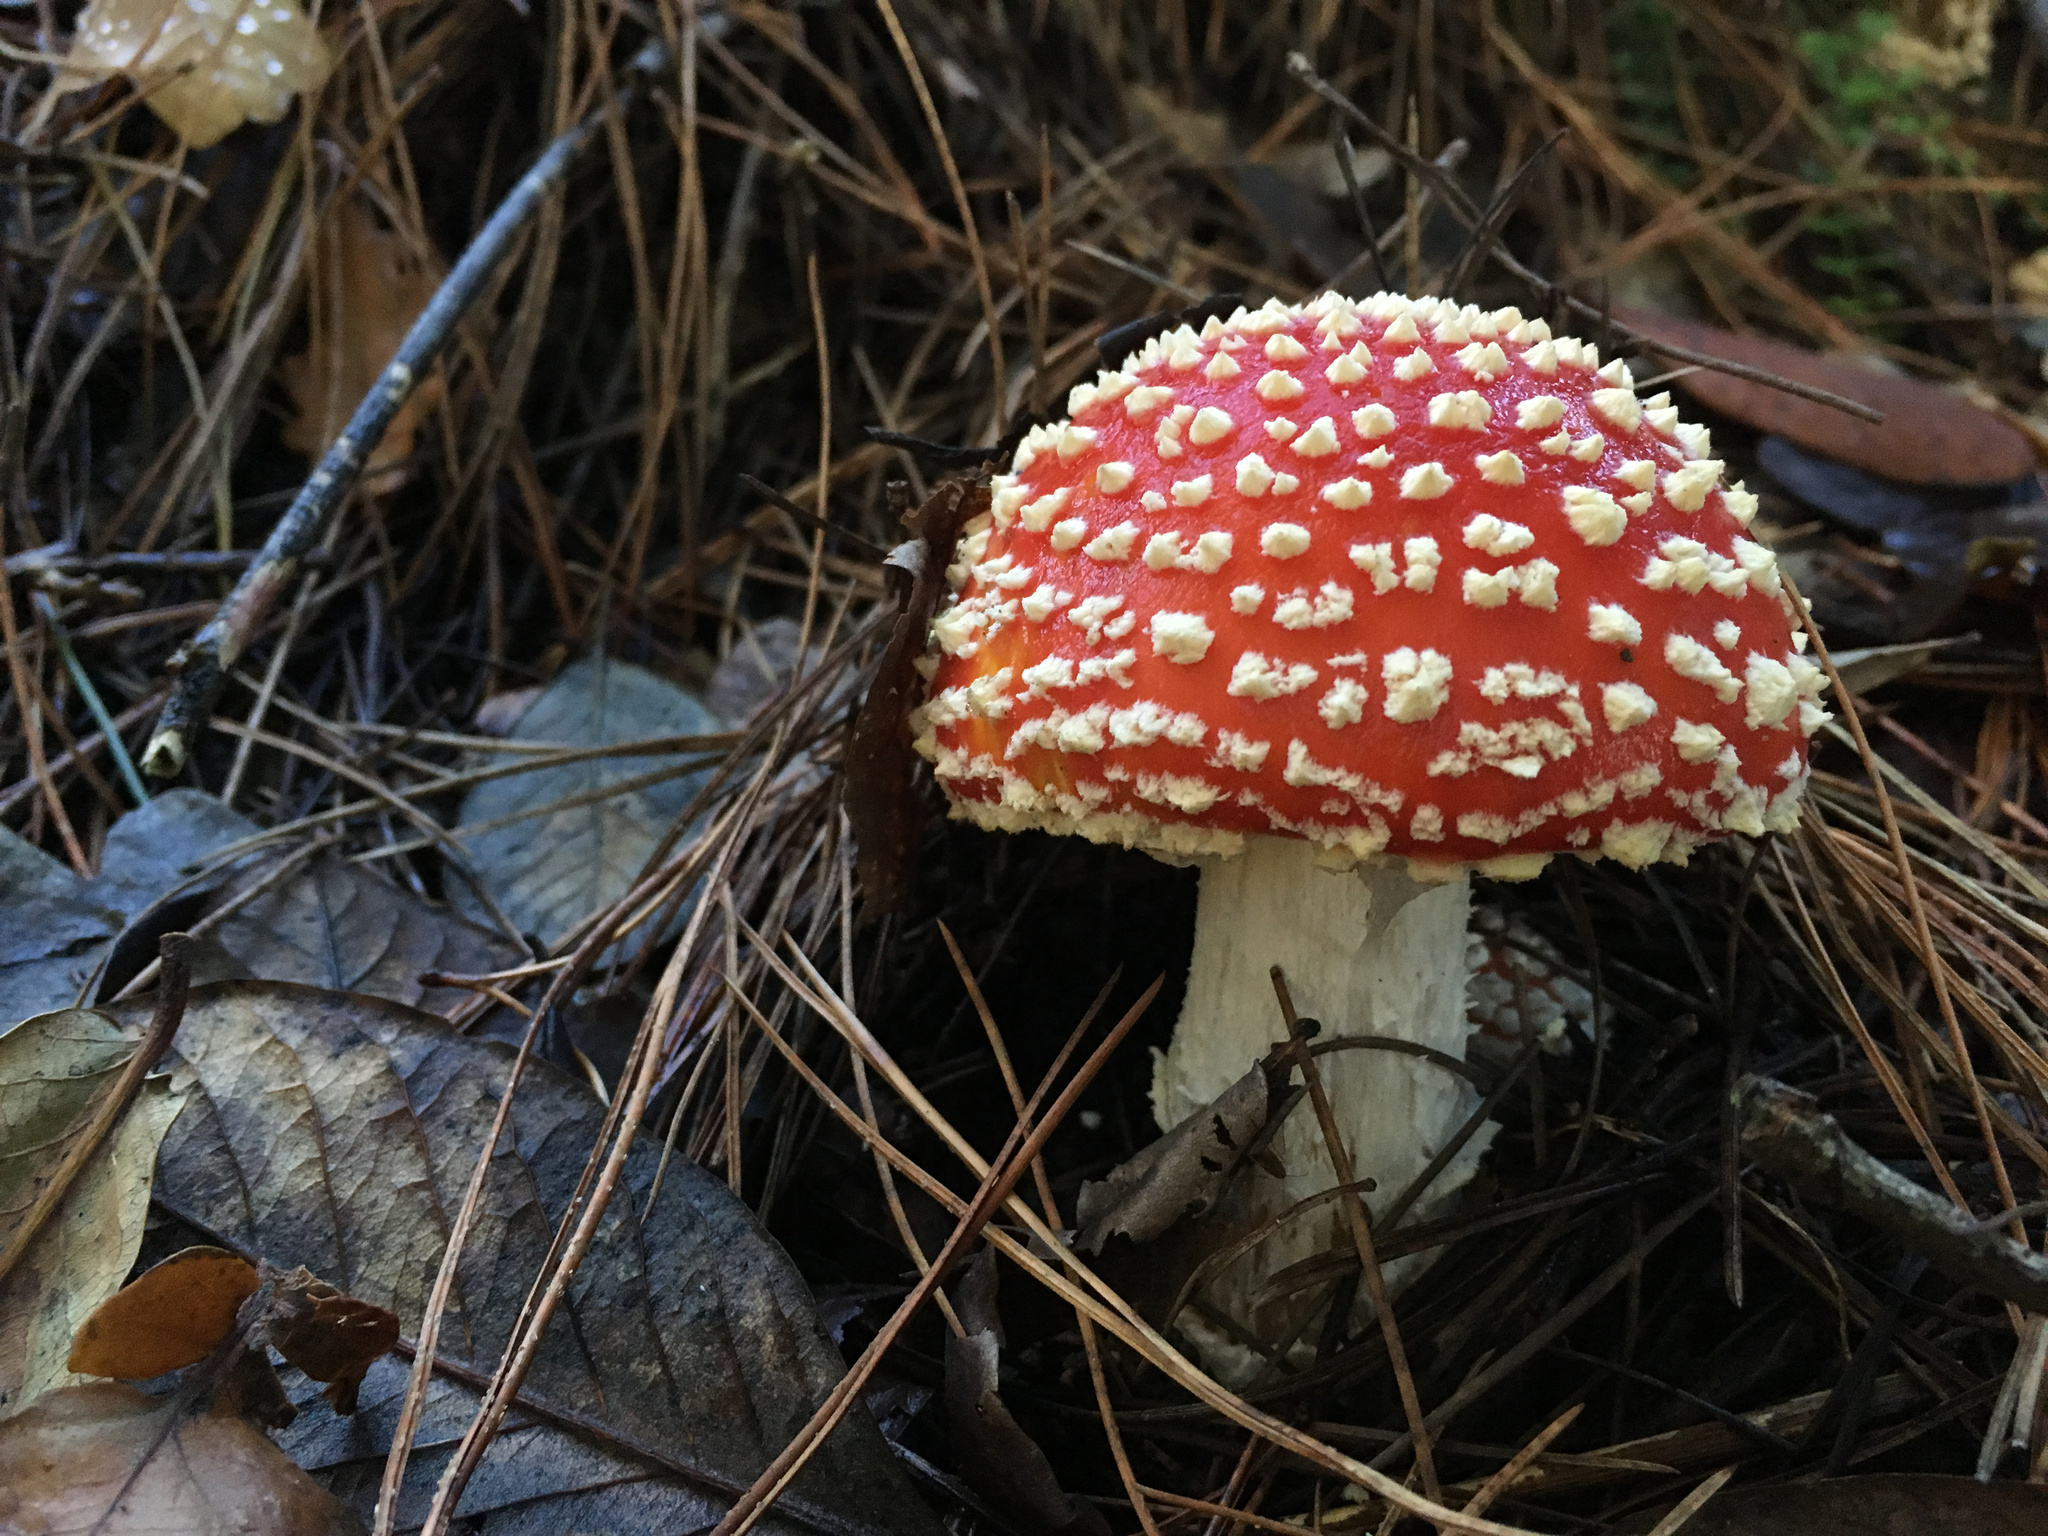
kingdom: Fungi
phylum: Basidiomycota
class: Agaricomycetes
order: Agaricales
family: Amanitaceae
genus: Amanita
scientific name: Amanita muscaria
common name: Fly agaric
